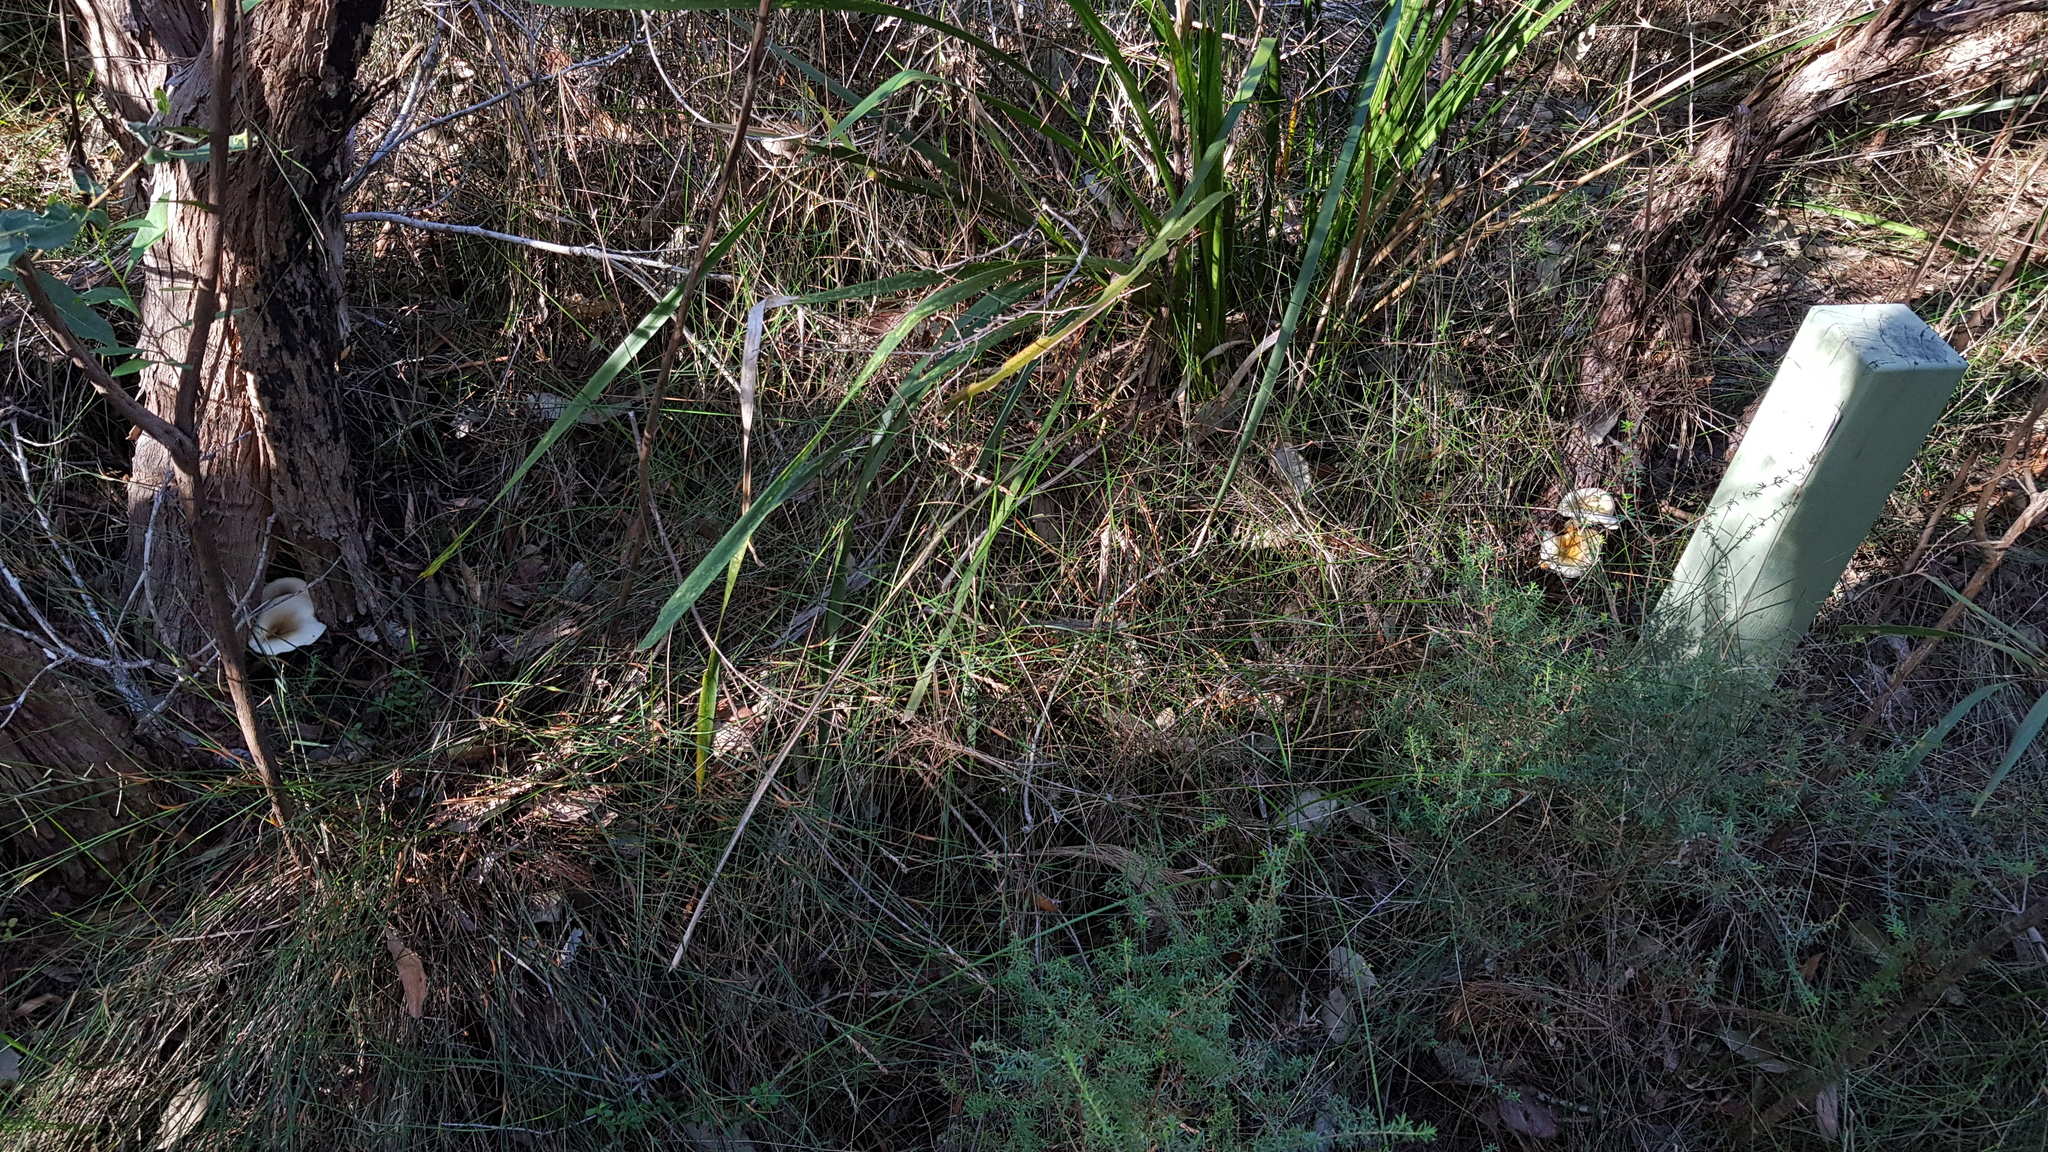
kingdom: Fungi
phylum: Basidiomycota
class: Agaricomycetes
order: Agaricales
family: Omphalotaceae
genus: Omphalotus
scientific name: Omphalotus nidiformis
